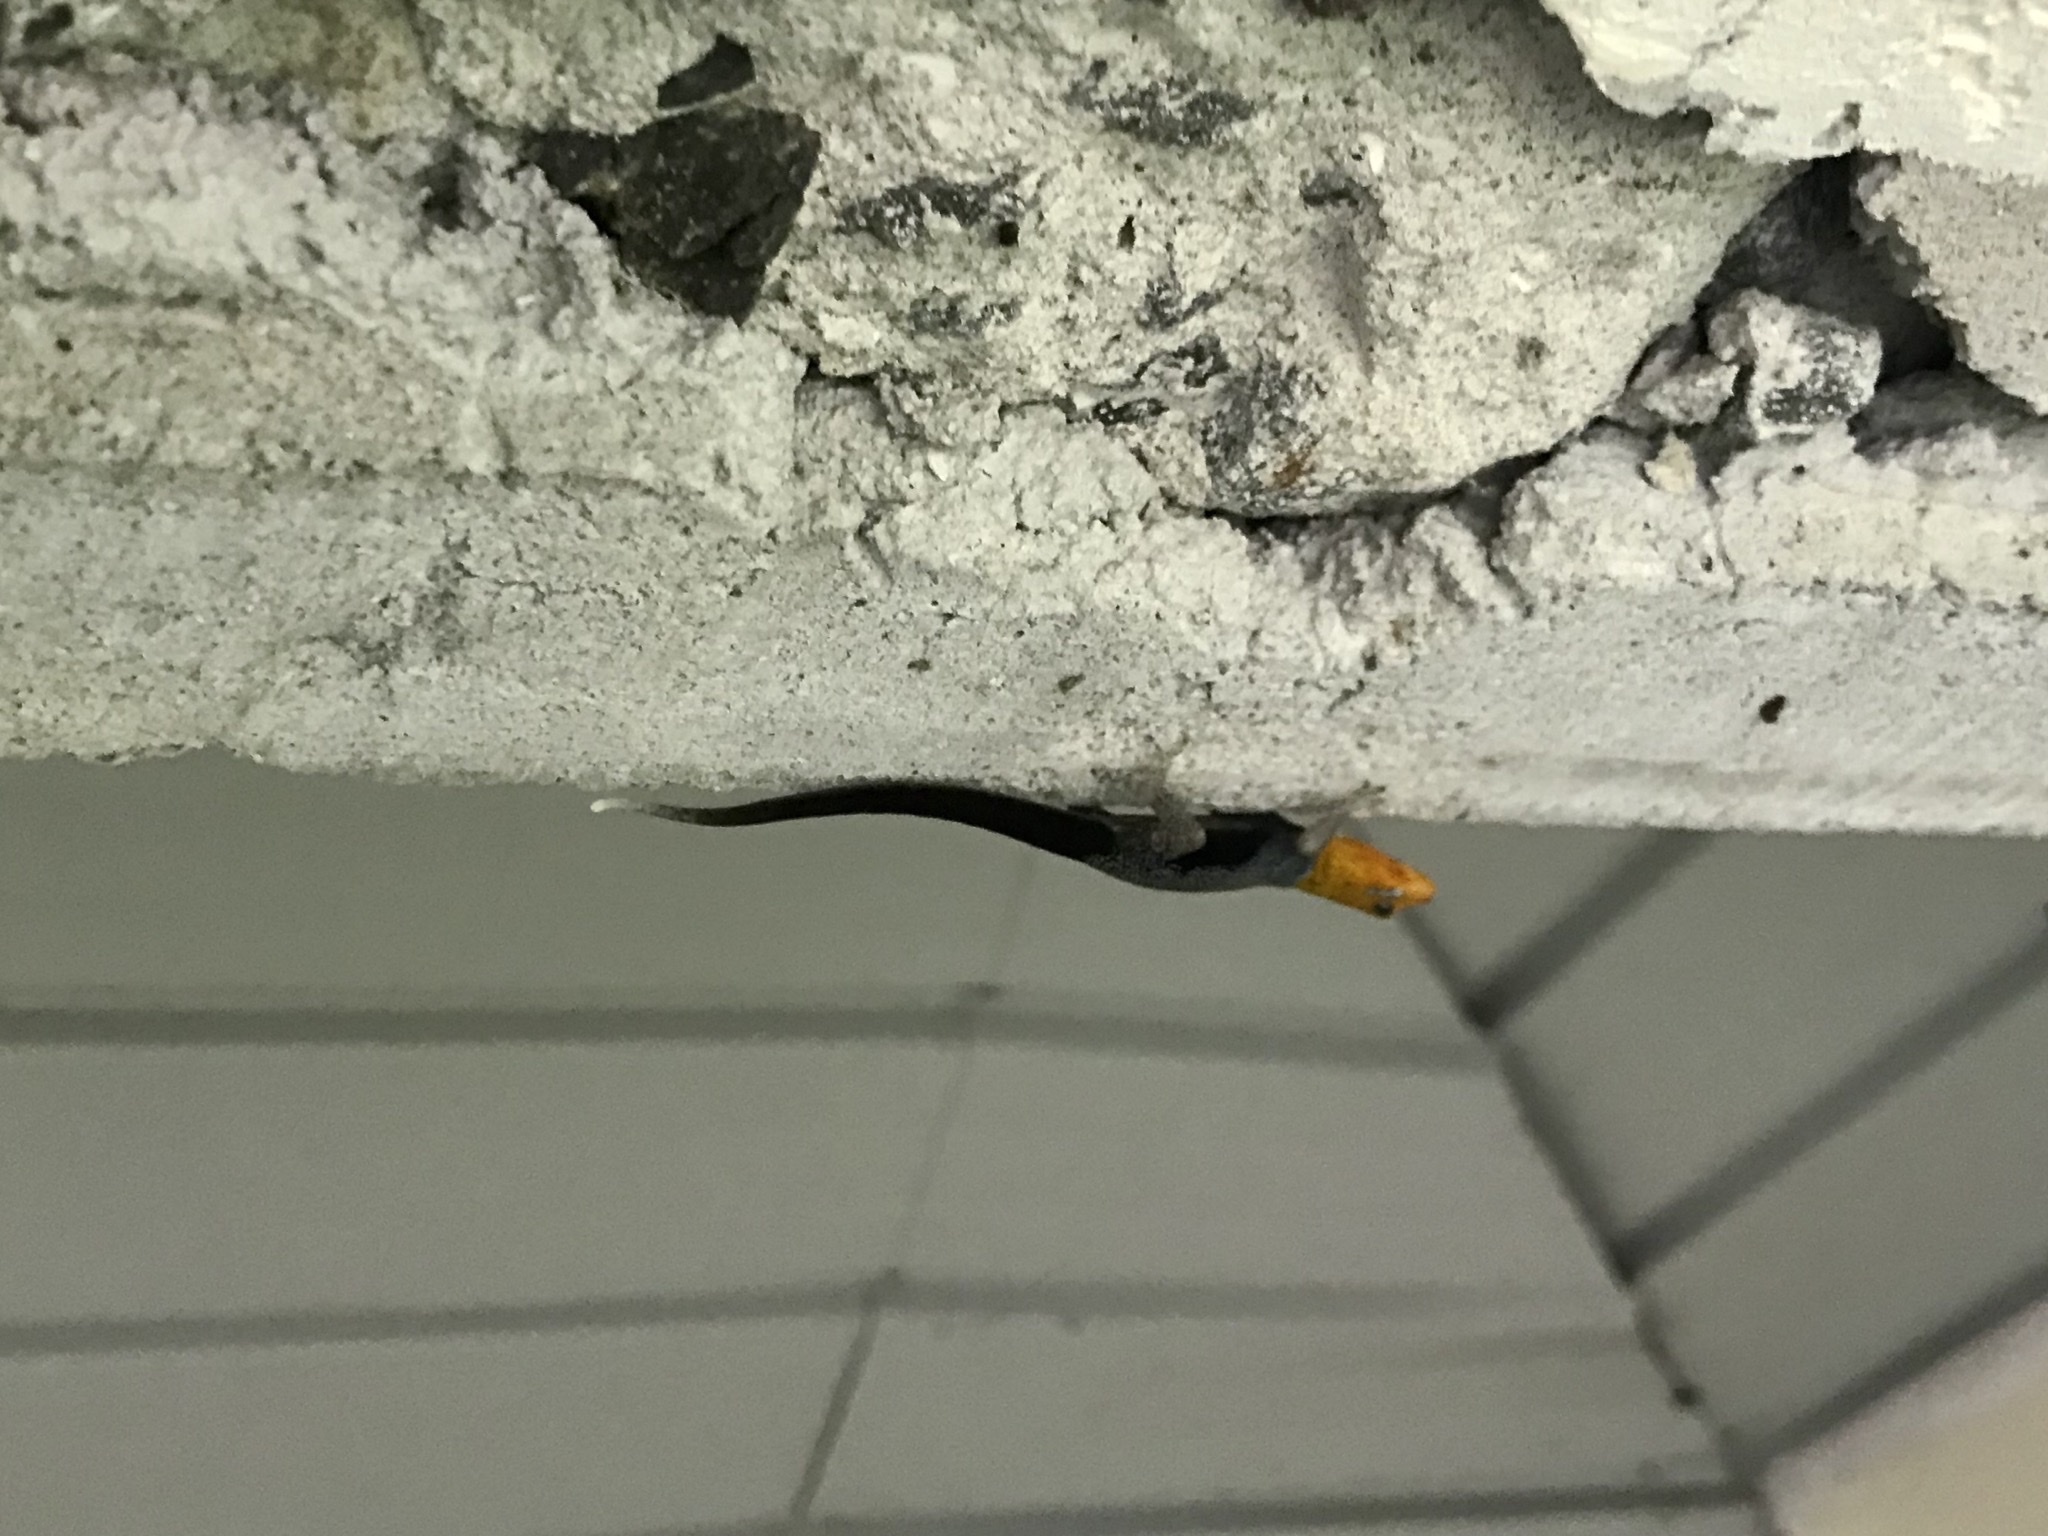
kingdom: Animalia
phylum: Chordata
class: Squamata
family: Sphaerodactylidae
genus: Gonatodes
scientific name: Gonatodes albogularis
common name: Yellow-headed gecko
